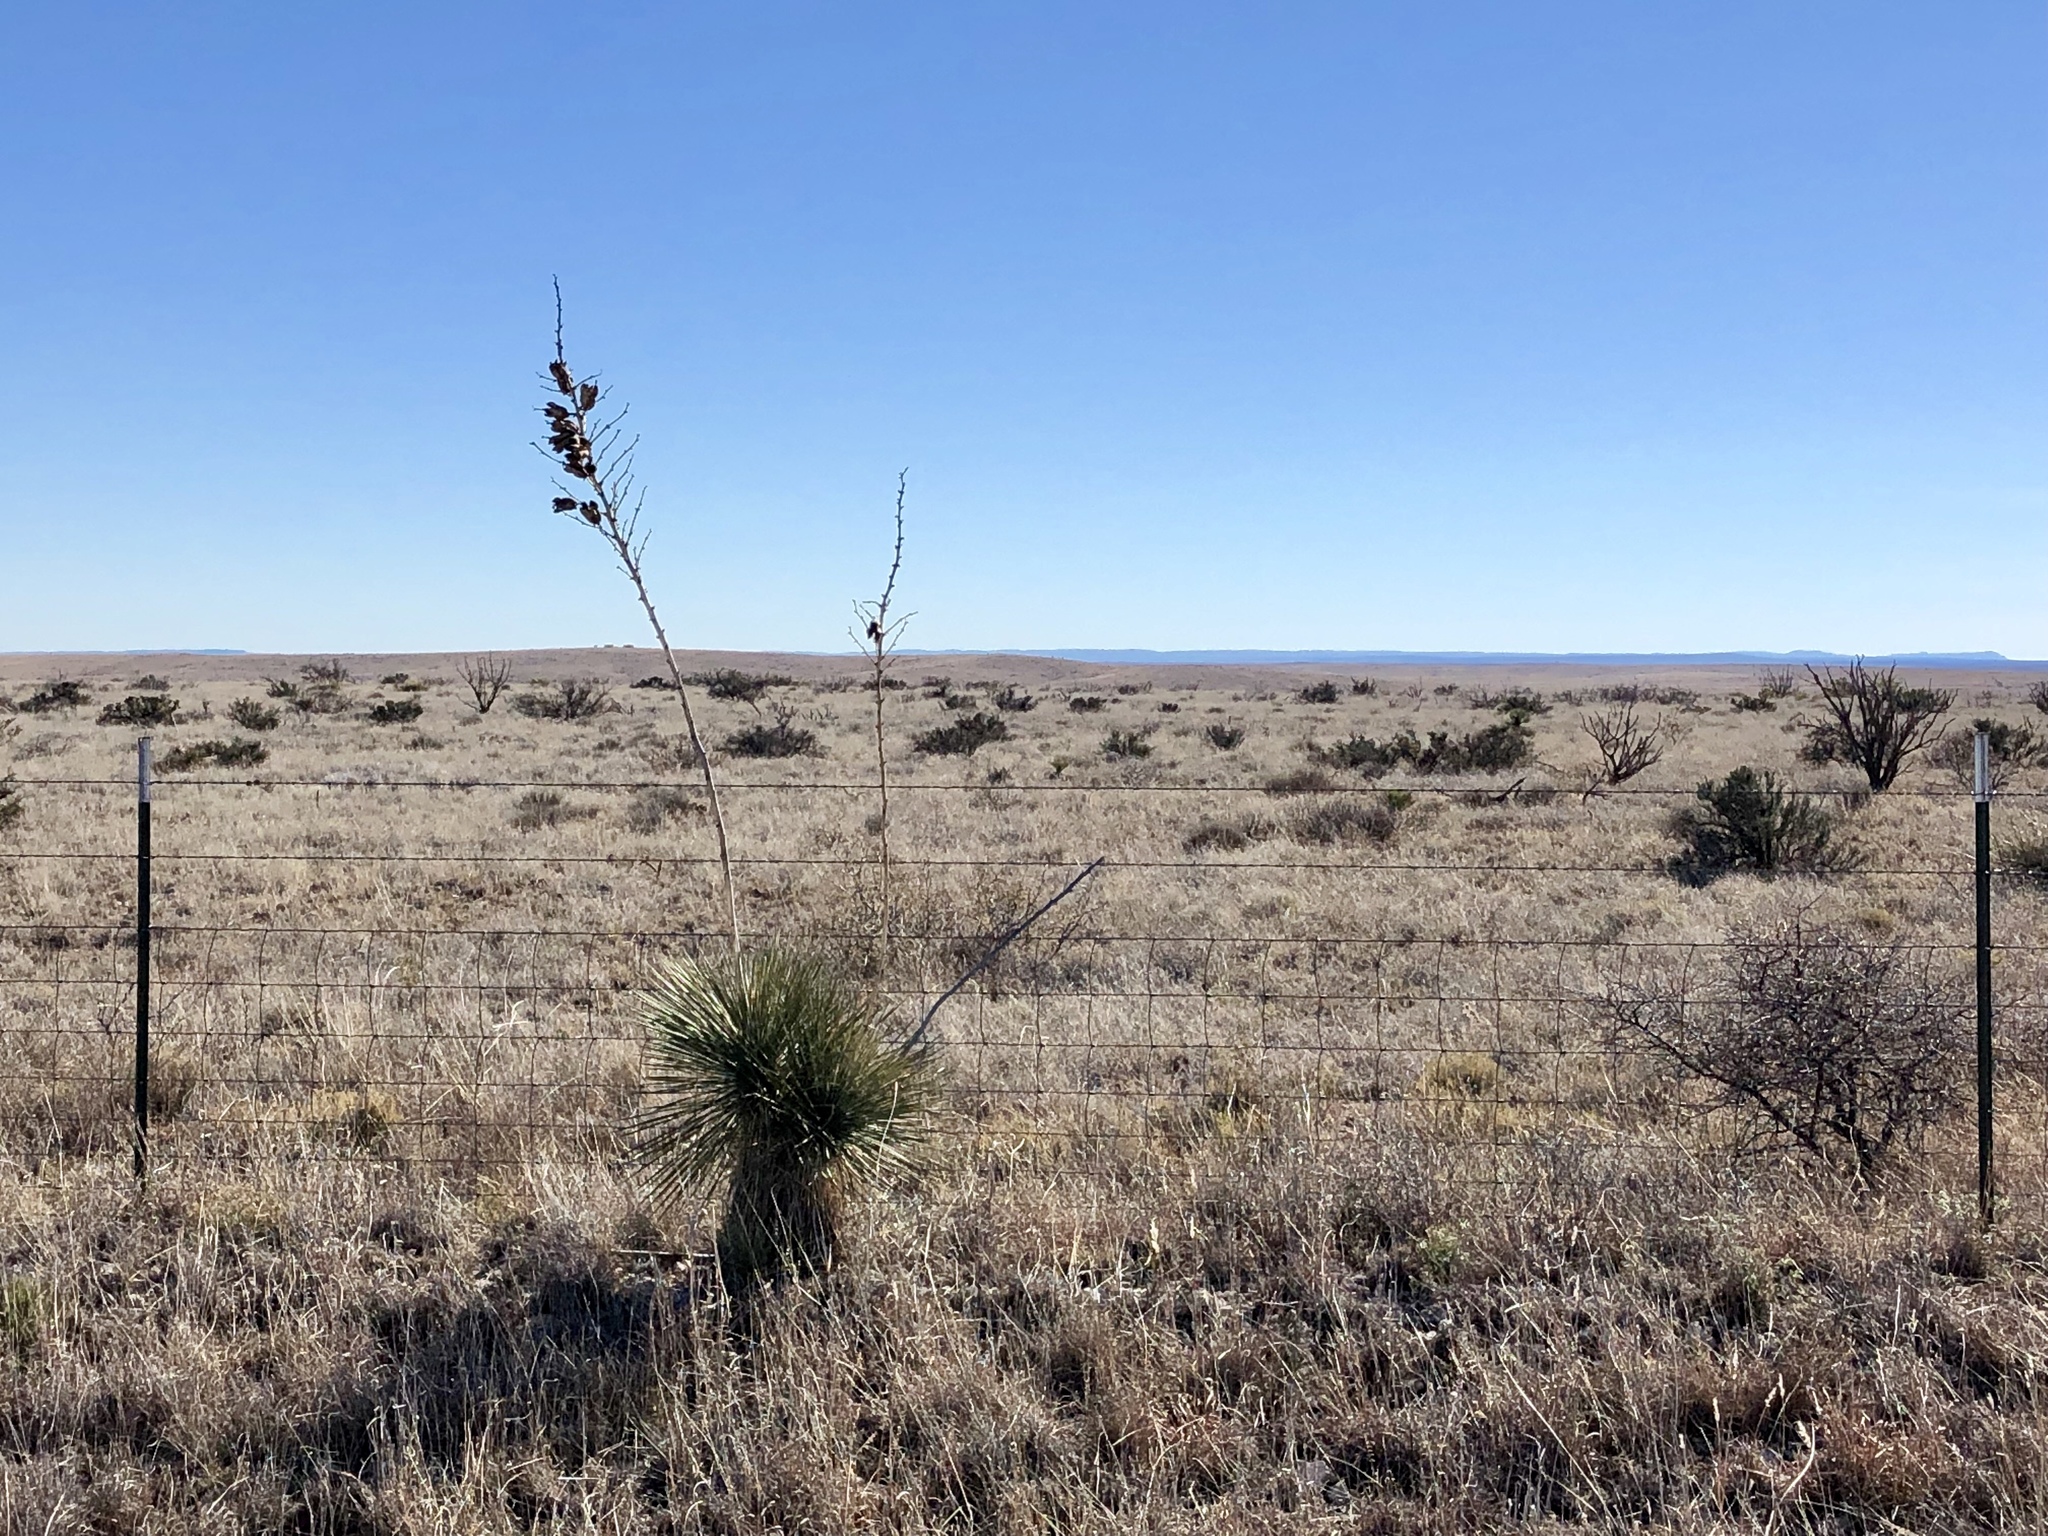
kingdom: Plantae
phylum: Tracheophyta
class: Liliopsida
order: Asparagales
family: Asparagaceae
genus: Yucca
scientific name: Yucca elata
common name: Palmella
